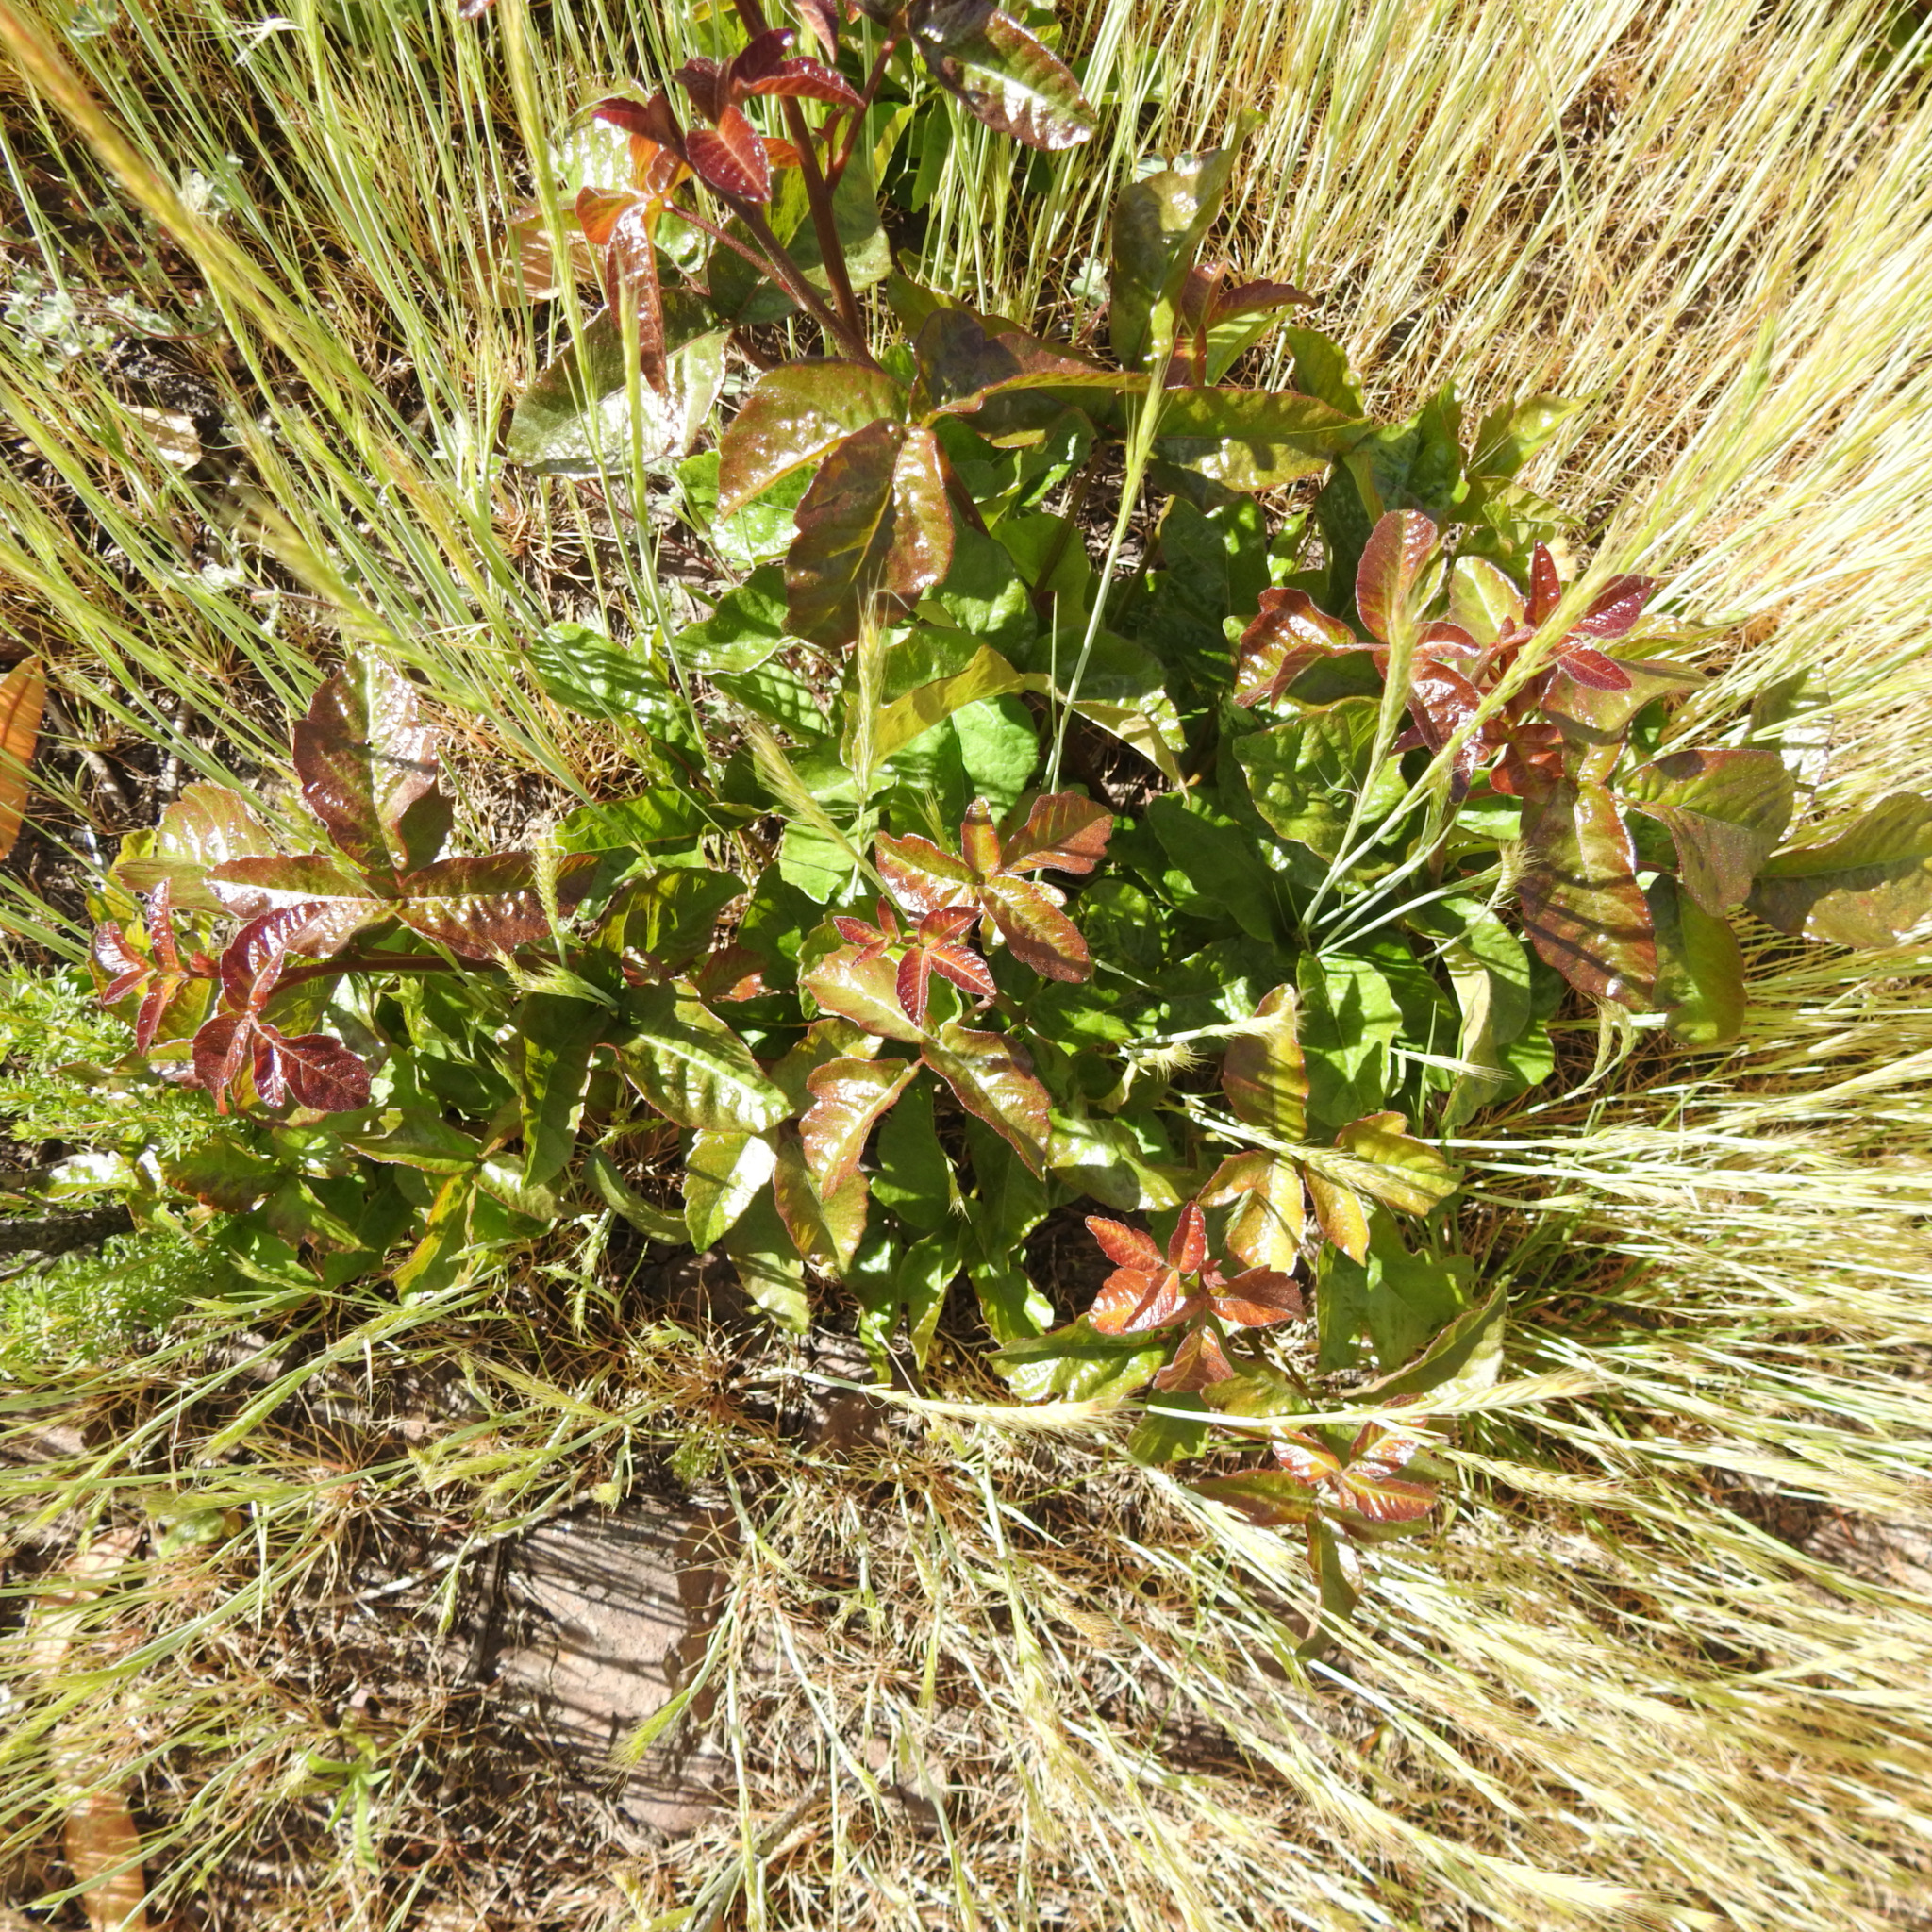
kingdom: Plantae
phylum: Tracheophyta
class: Magnoliopsida
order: Sapindales
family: Anacardiaceae
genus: Toxicodendron
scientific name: Toxicodendron diversilobum
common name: Pacific poison-oak
